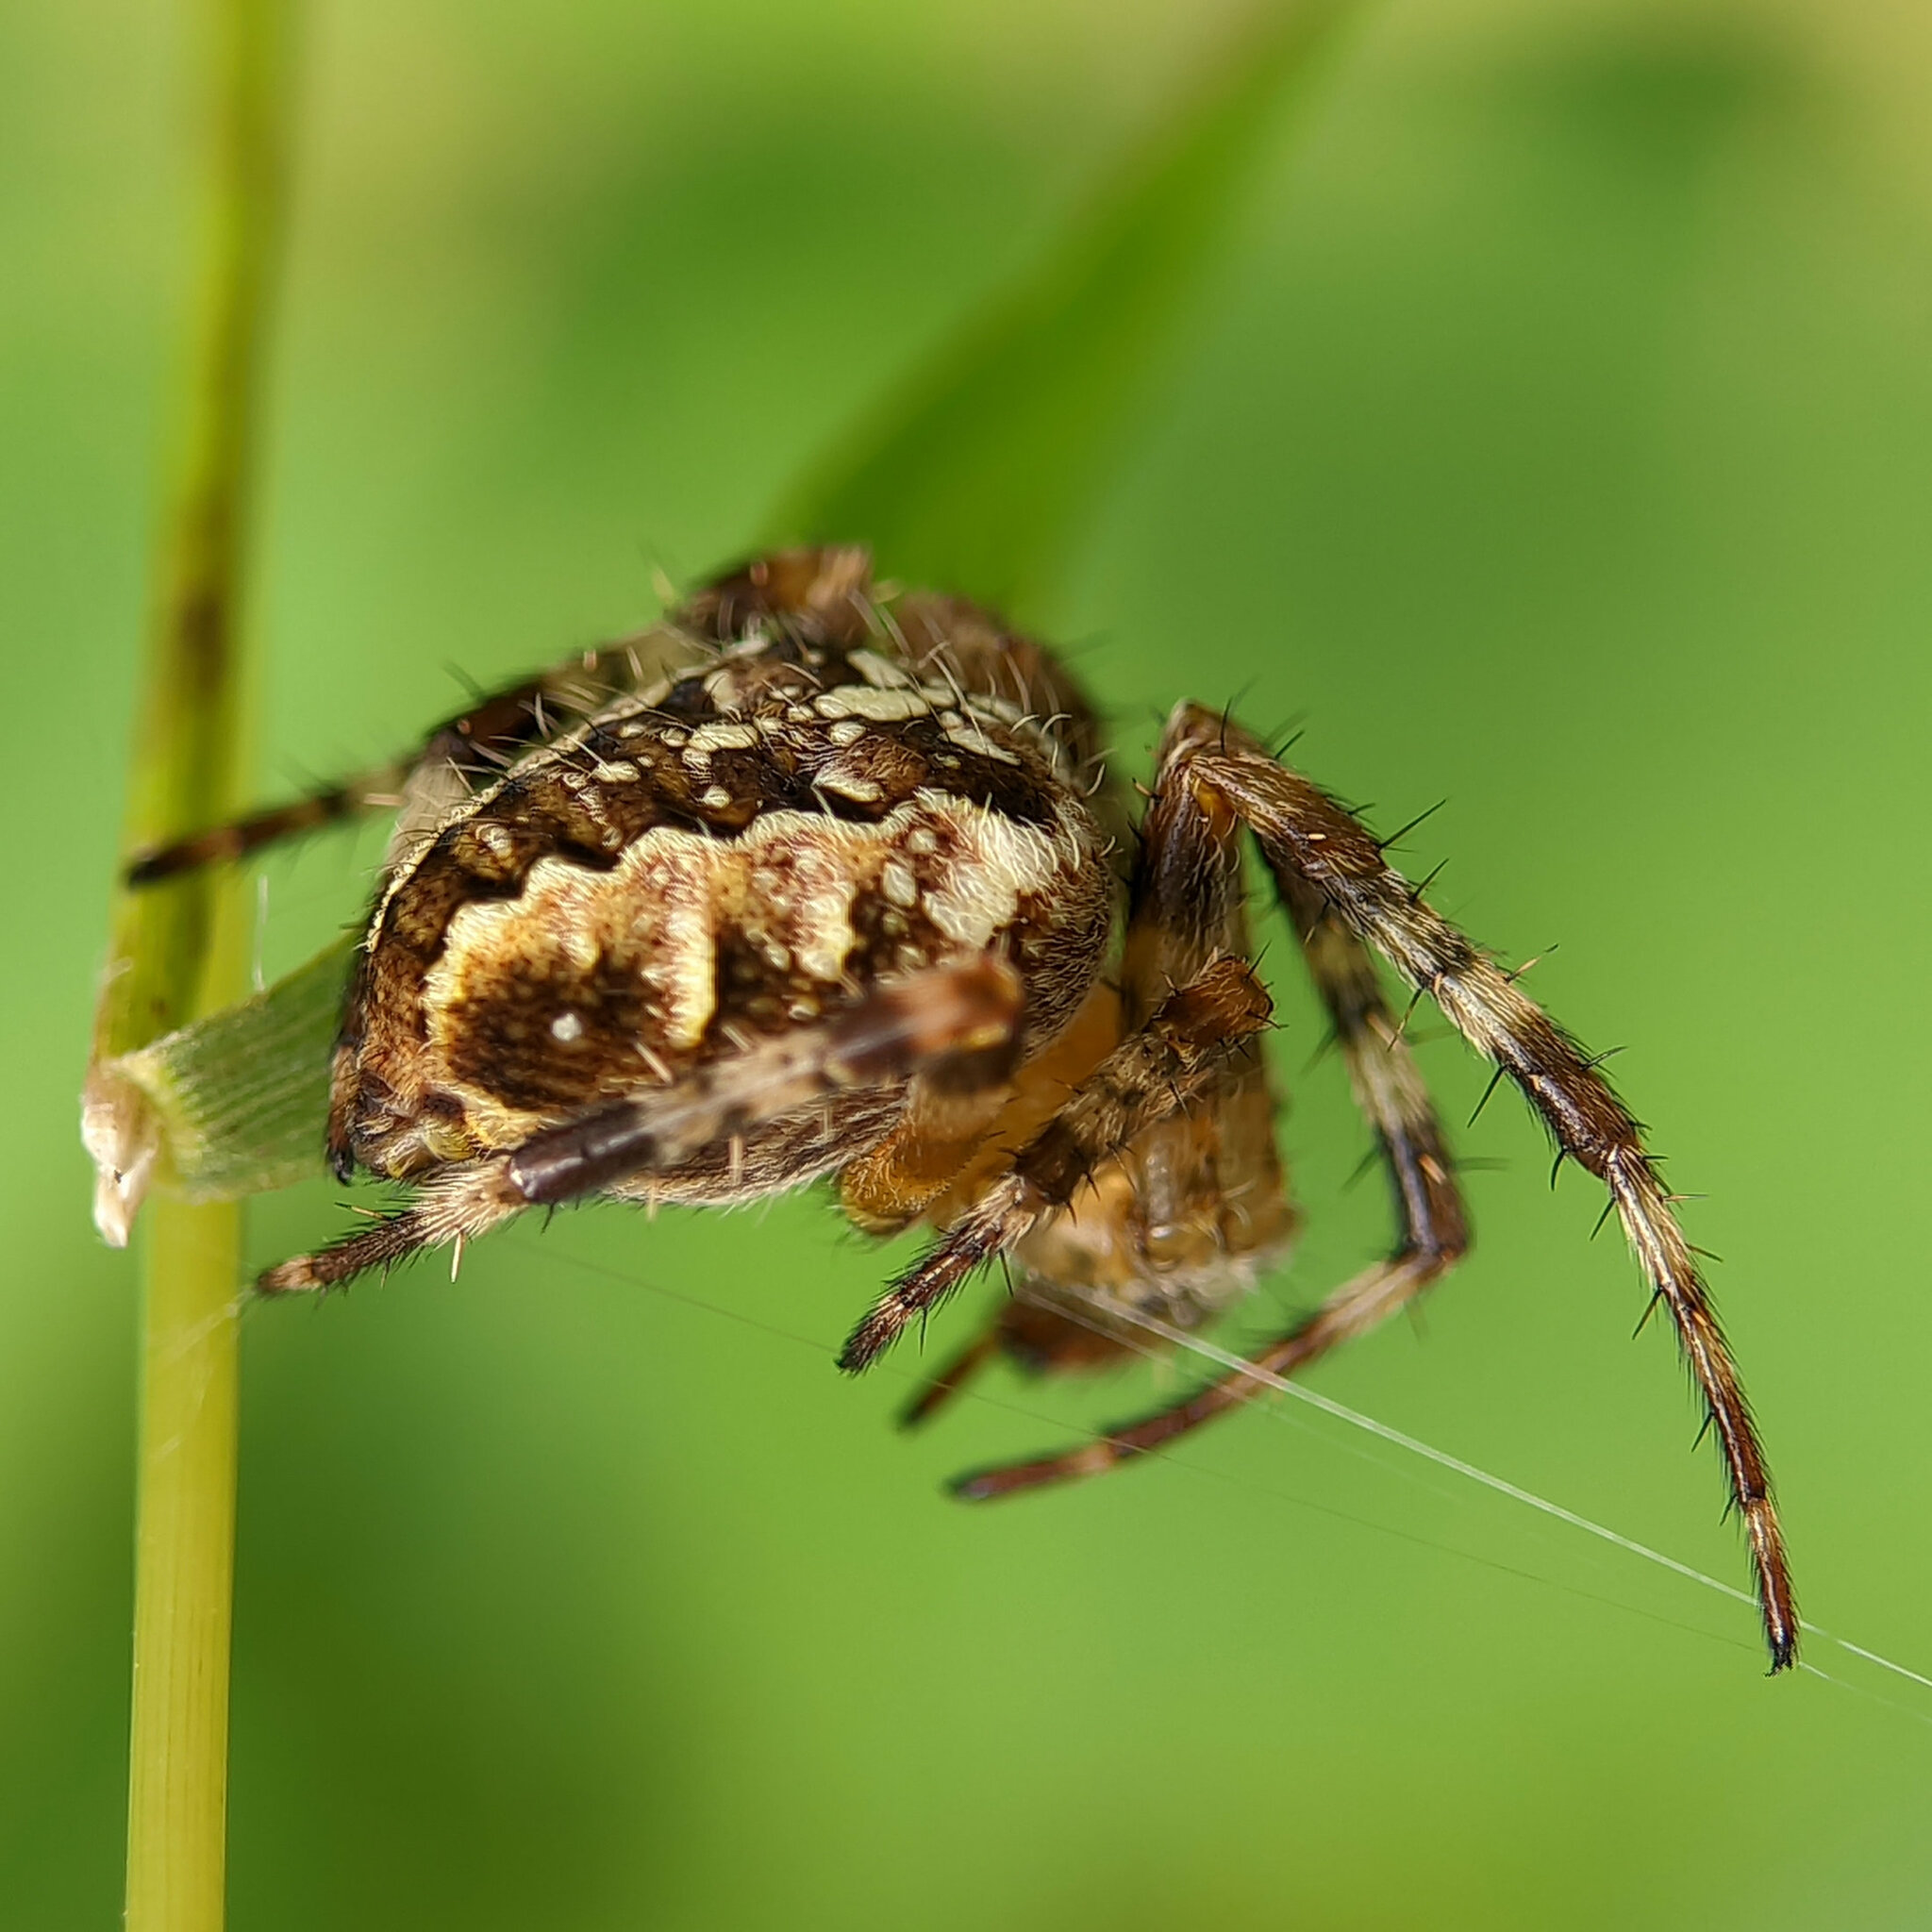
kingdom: Animalia
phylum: Arthropoda
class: Arachnida
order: Araneae
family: Araneidae
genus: Araneus
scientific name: Araneus diadematus
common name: Cross orbweaver
